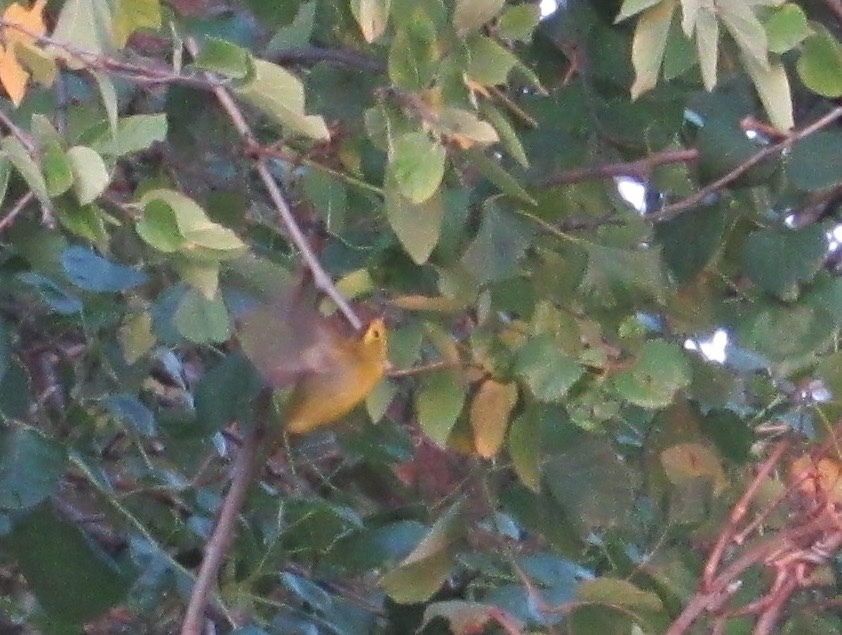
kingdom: Animalia
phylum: Chordata
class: Aves
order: Passeriformes
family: Parulidae
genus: Cardellina
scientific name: Cardellina pusilla
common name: Wilson's warbler
